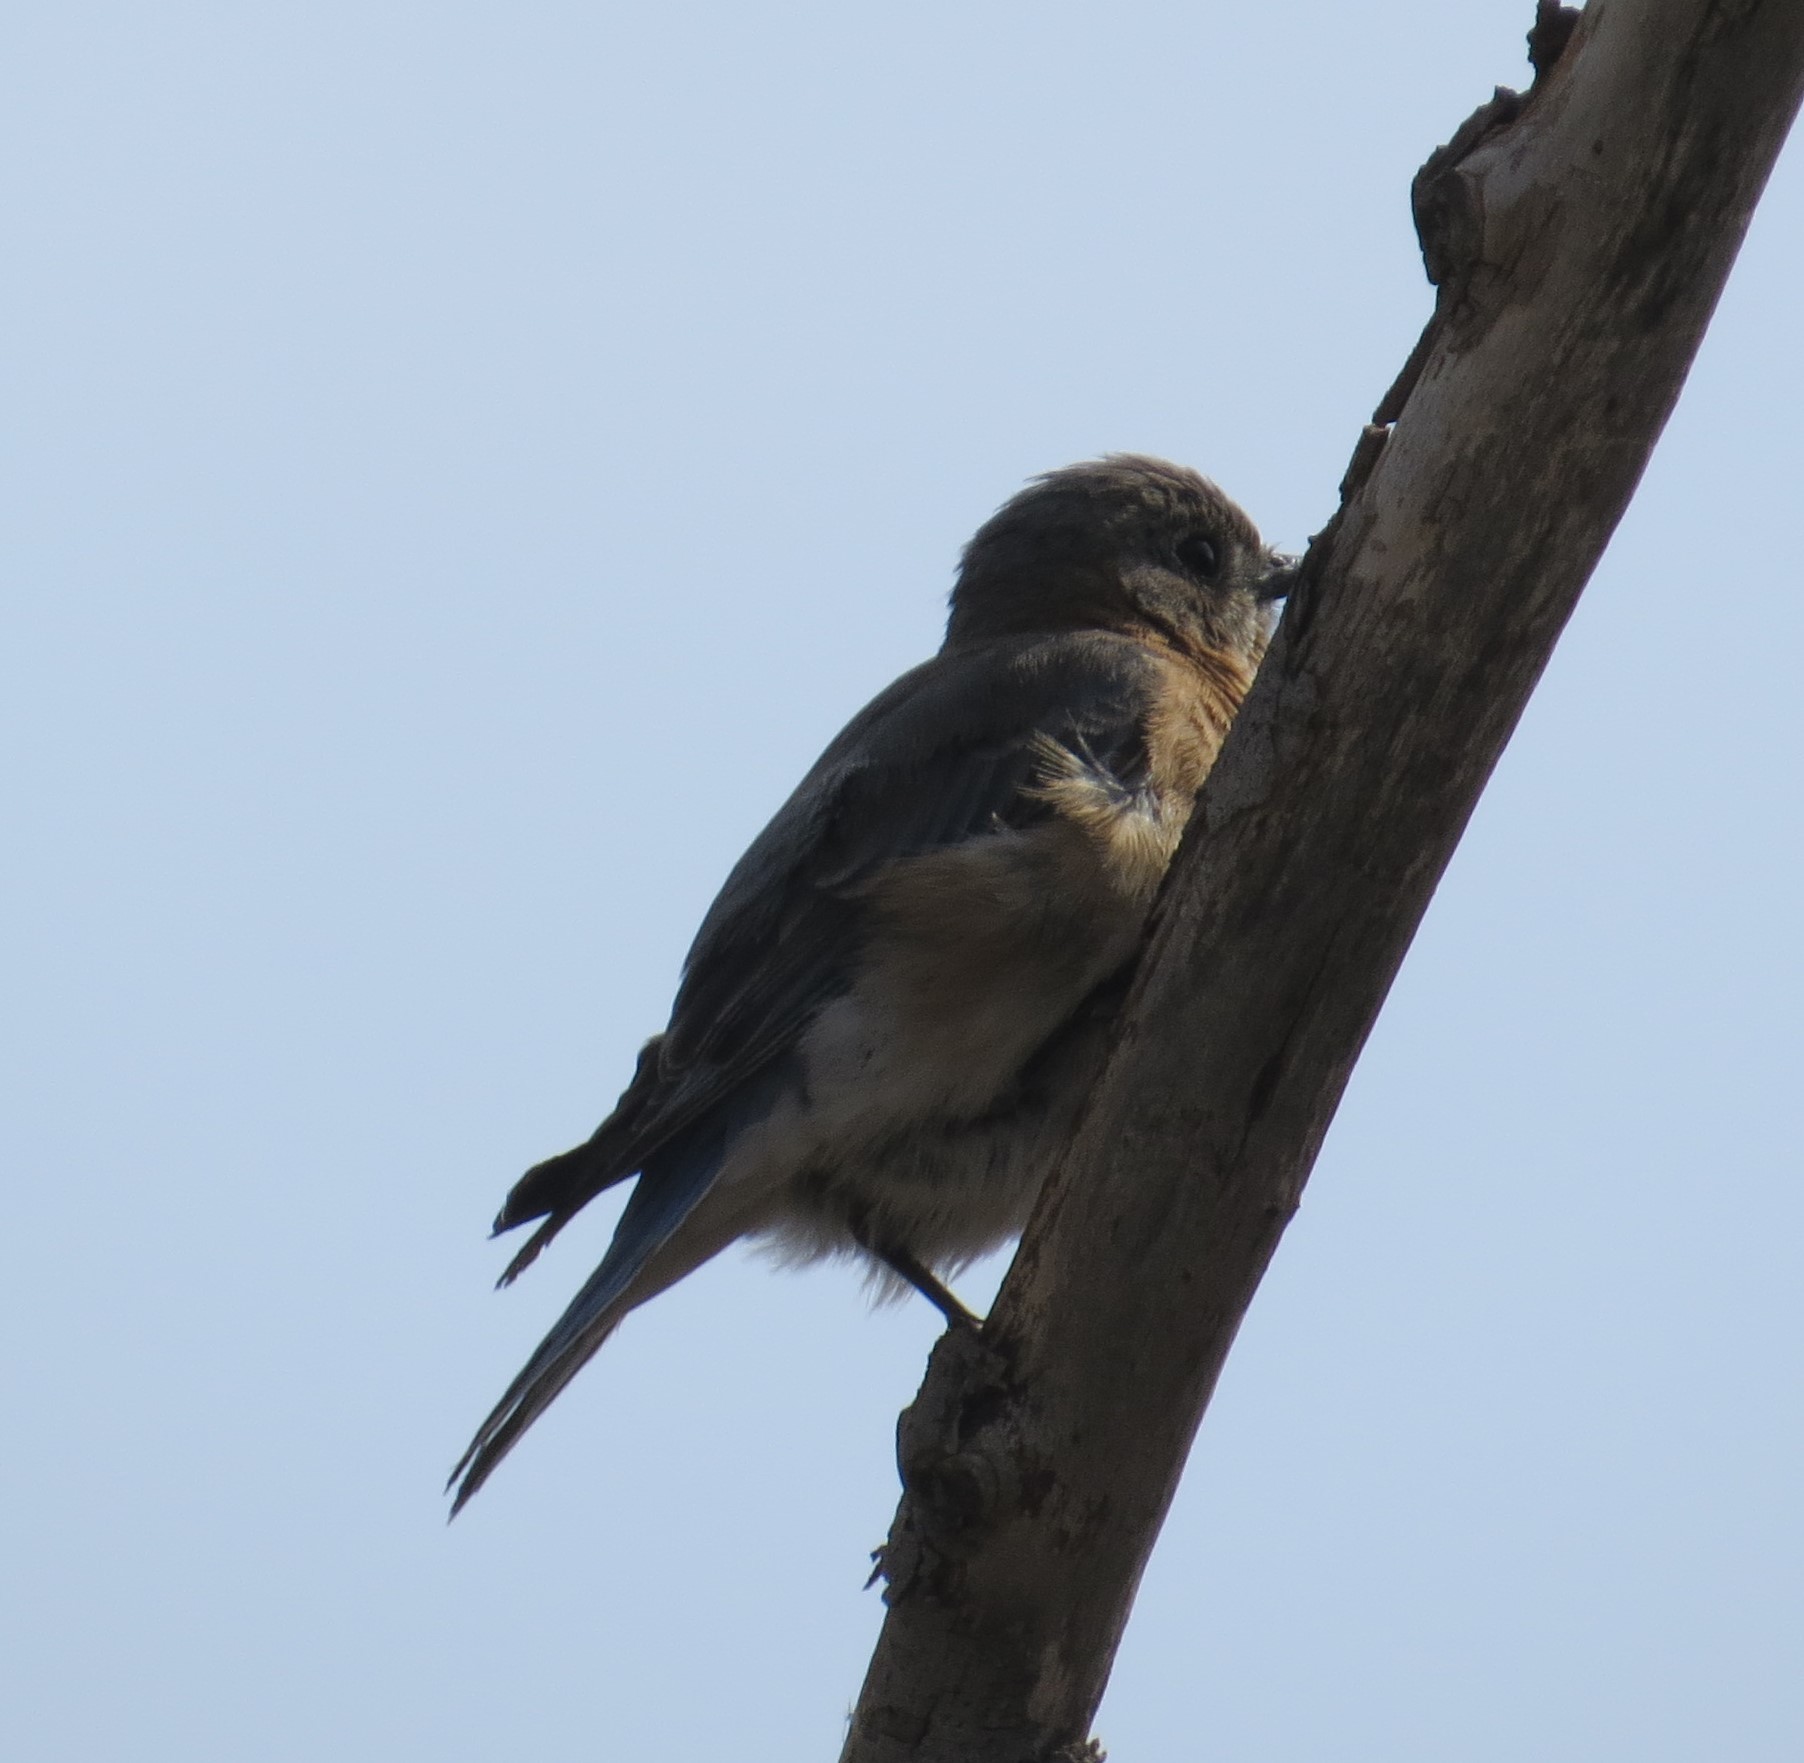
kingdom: Animalia
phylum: Chordata
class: Aves
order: Passeriformes
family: Turdidae
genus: Sialia
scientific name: Sialia sialis
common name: Eastern bluebird
